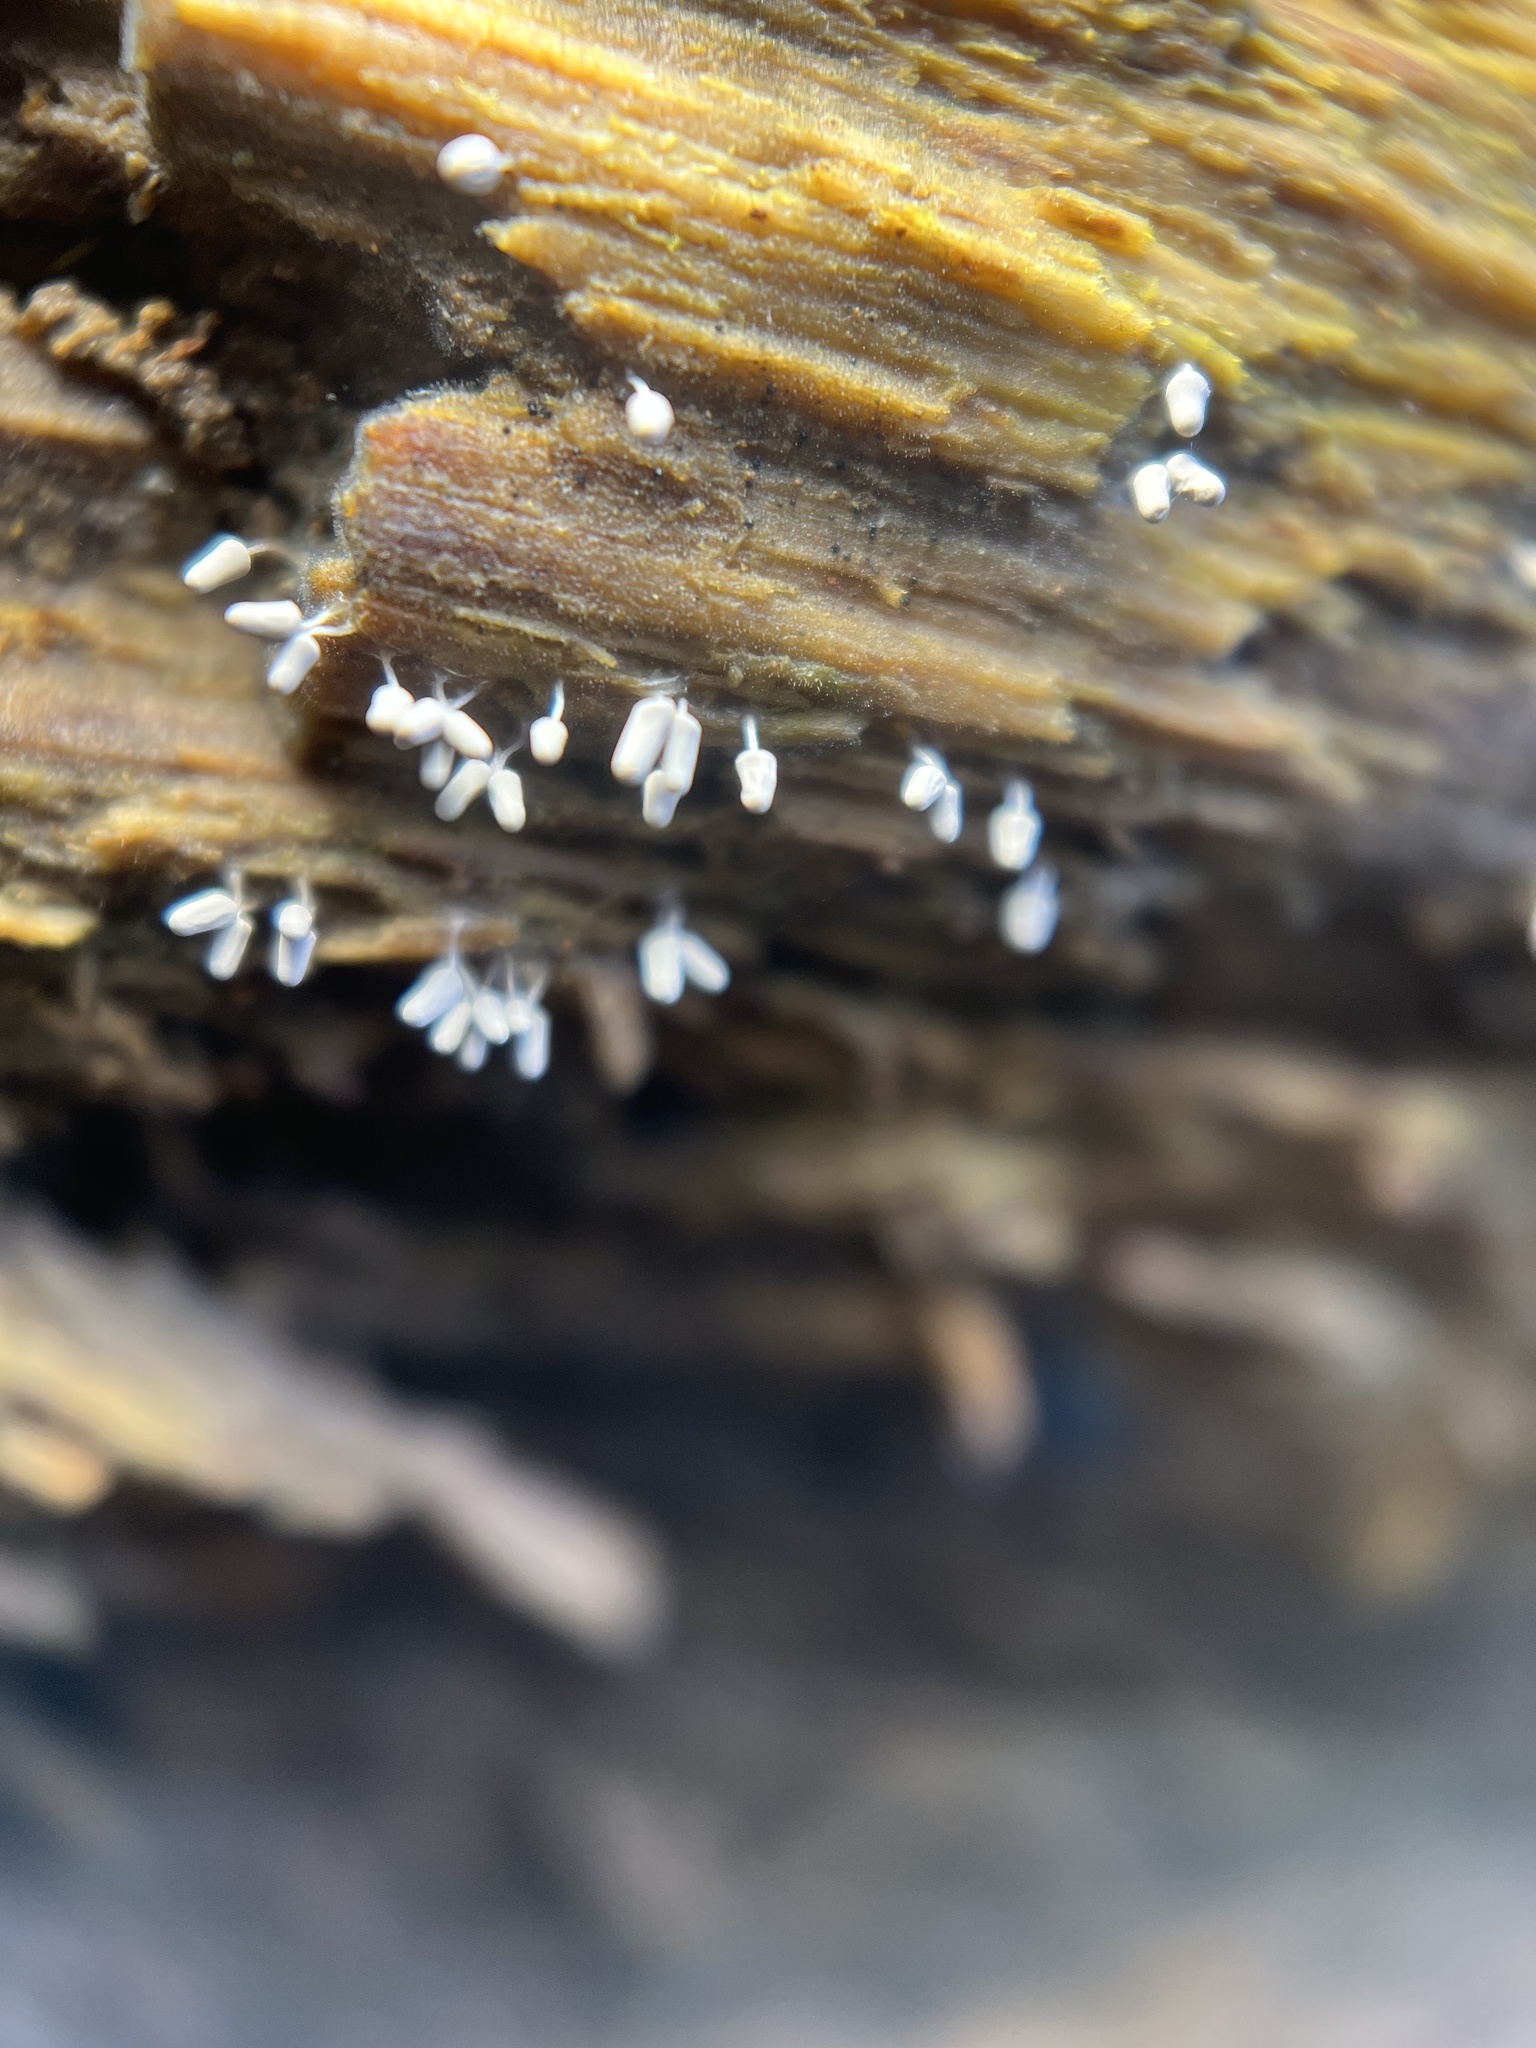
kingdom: Protozoa
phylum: Mycetozoa
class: Myxomycetes
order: Trichiales
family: Arcyriaceae
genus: Arcyria
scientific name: Arcyria cinerea
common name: White carnival candy slime mold
